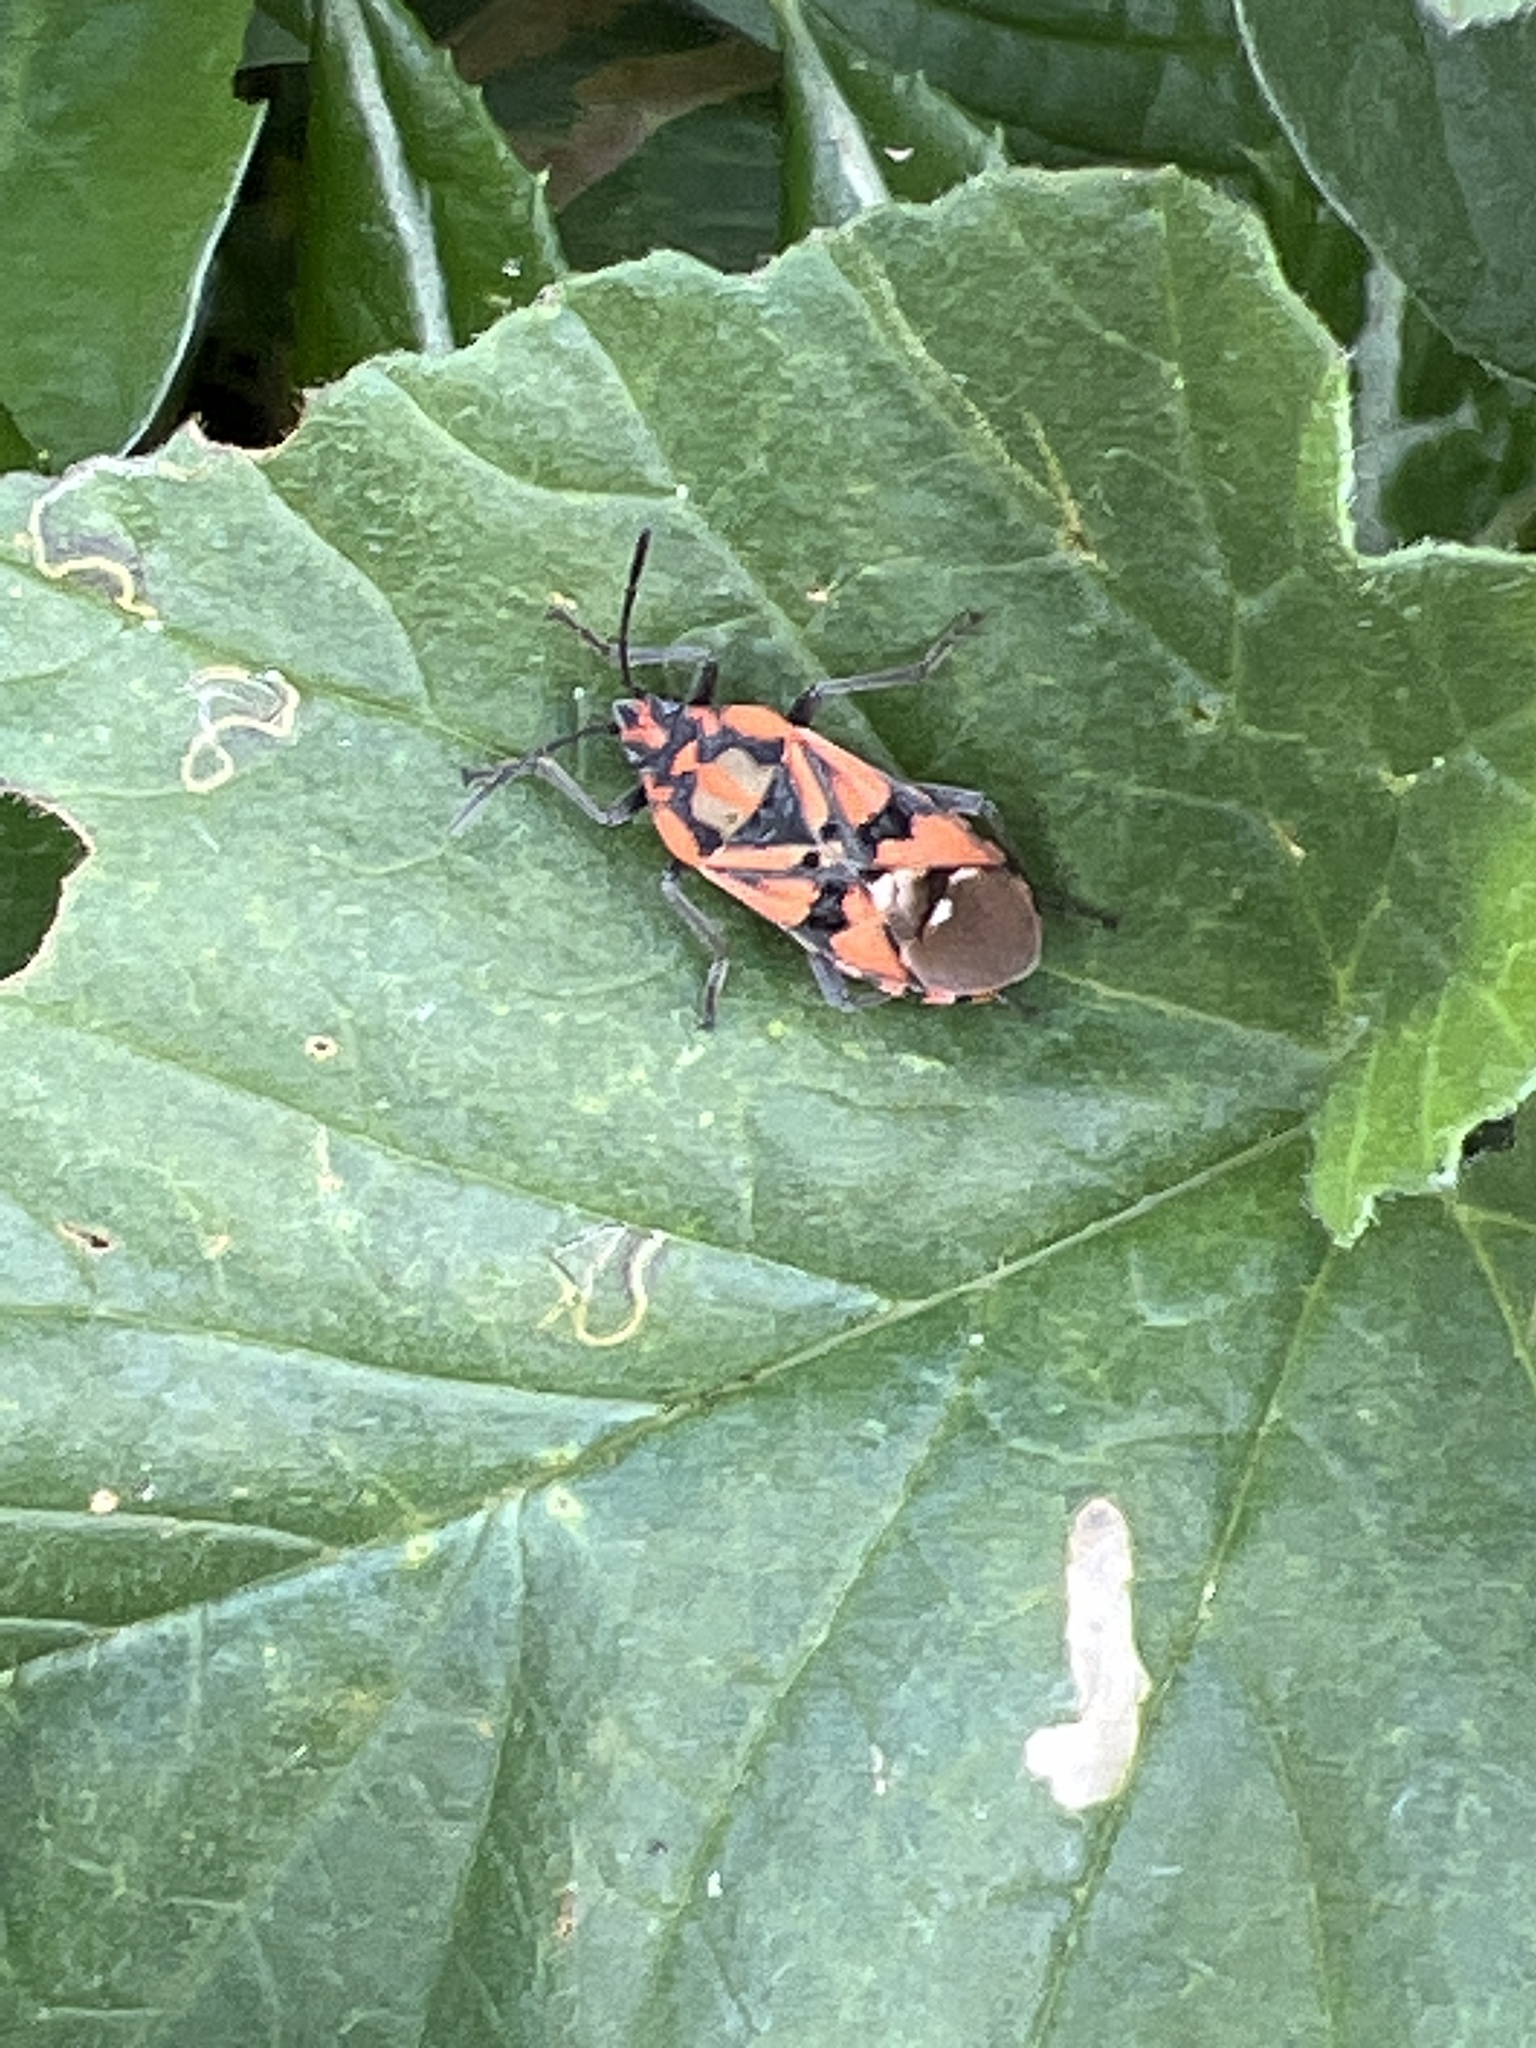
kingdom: Animalia
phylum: Arthropoda
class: Insecta
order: Hemiptera
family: Lygaeidae
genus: Spilostethus
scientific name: Spilostethus pandurus
